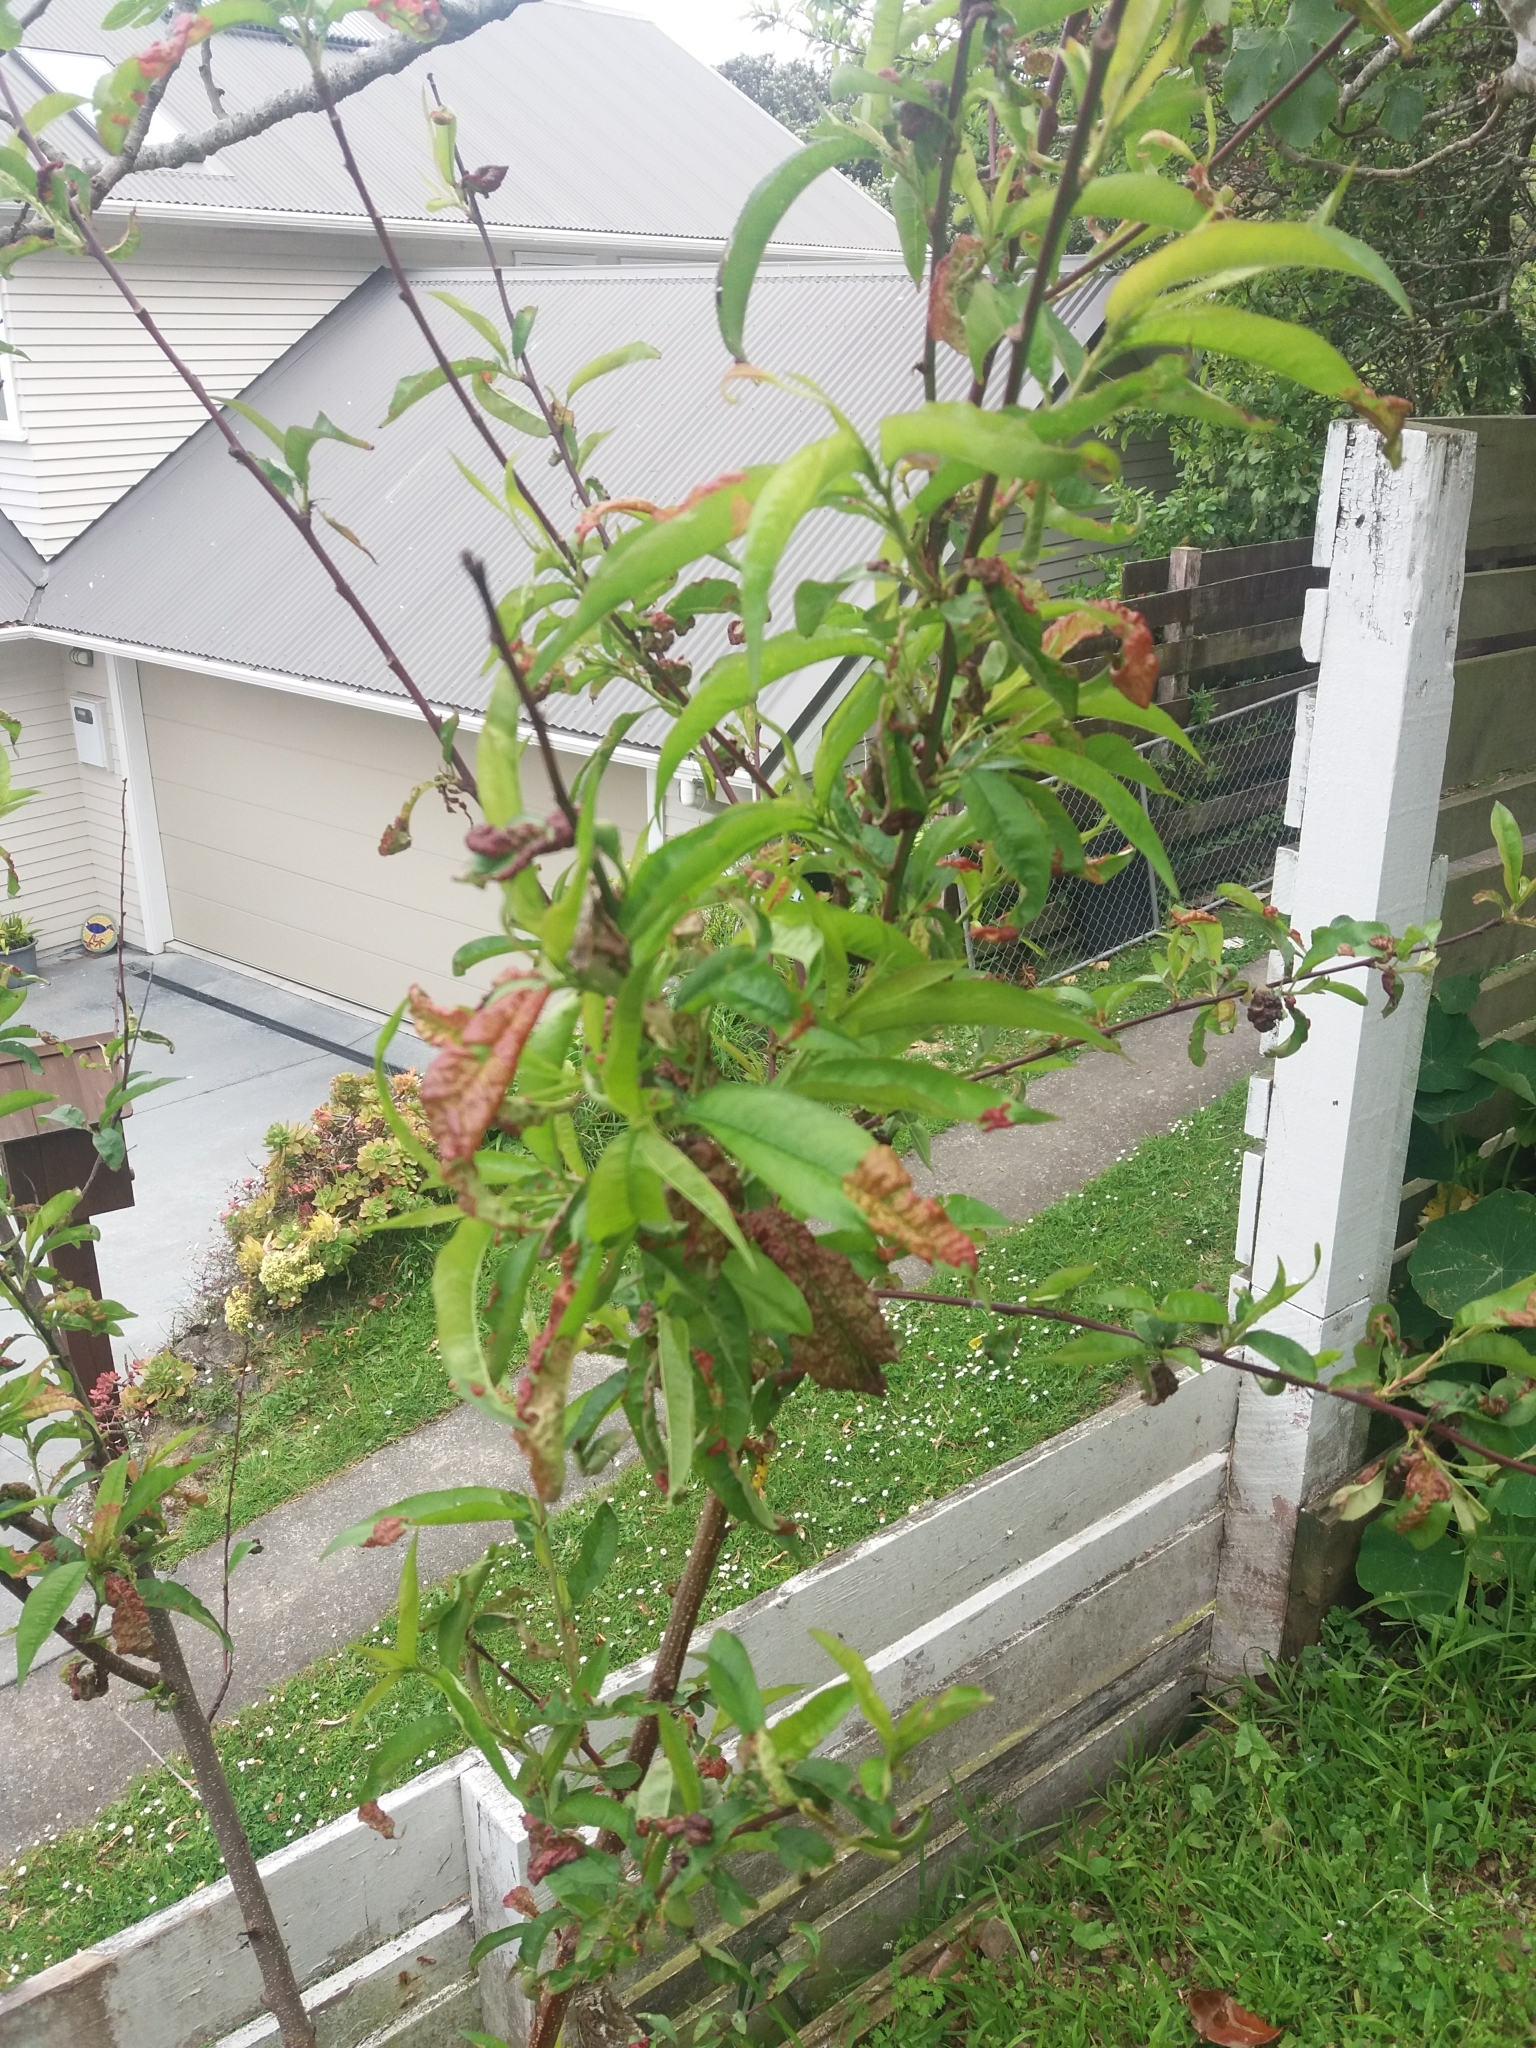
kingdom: Fungi
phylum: Ascomycota
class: Taphrinomycetes
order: Taphrinales
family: Taphrinaceae
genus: Taphrina
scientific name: Taphrina deformans
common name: Peach leaf curl
